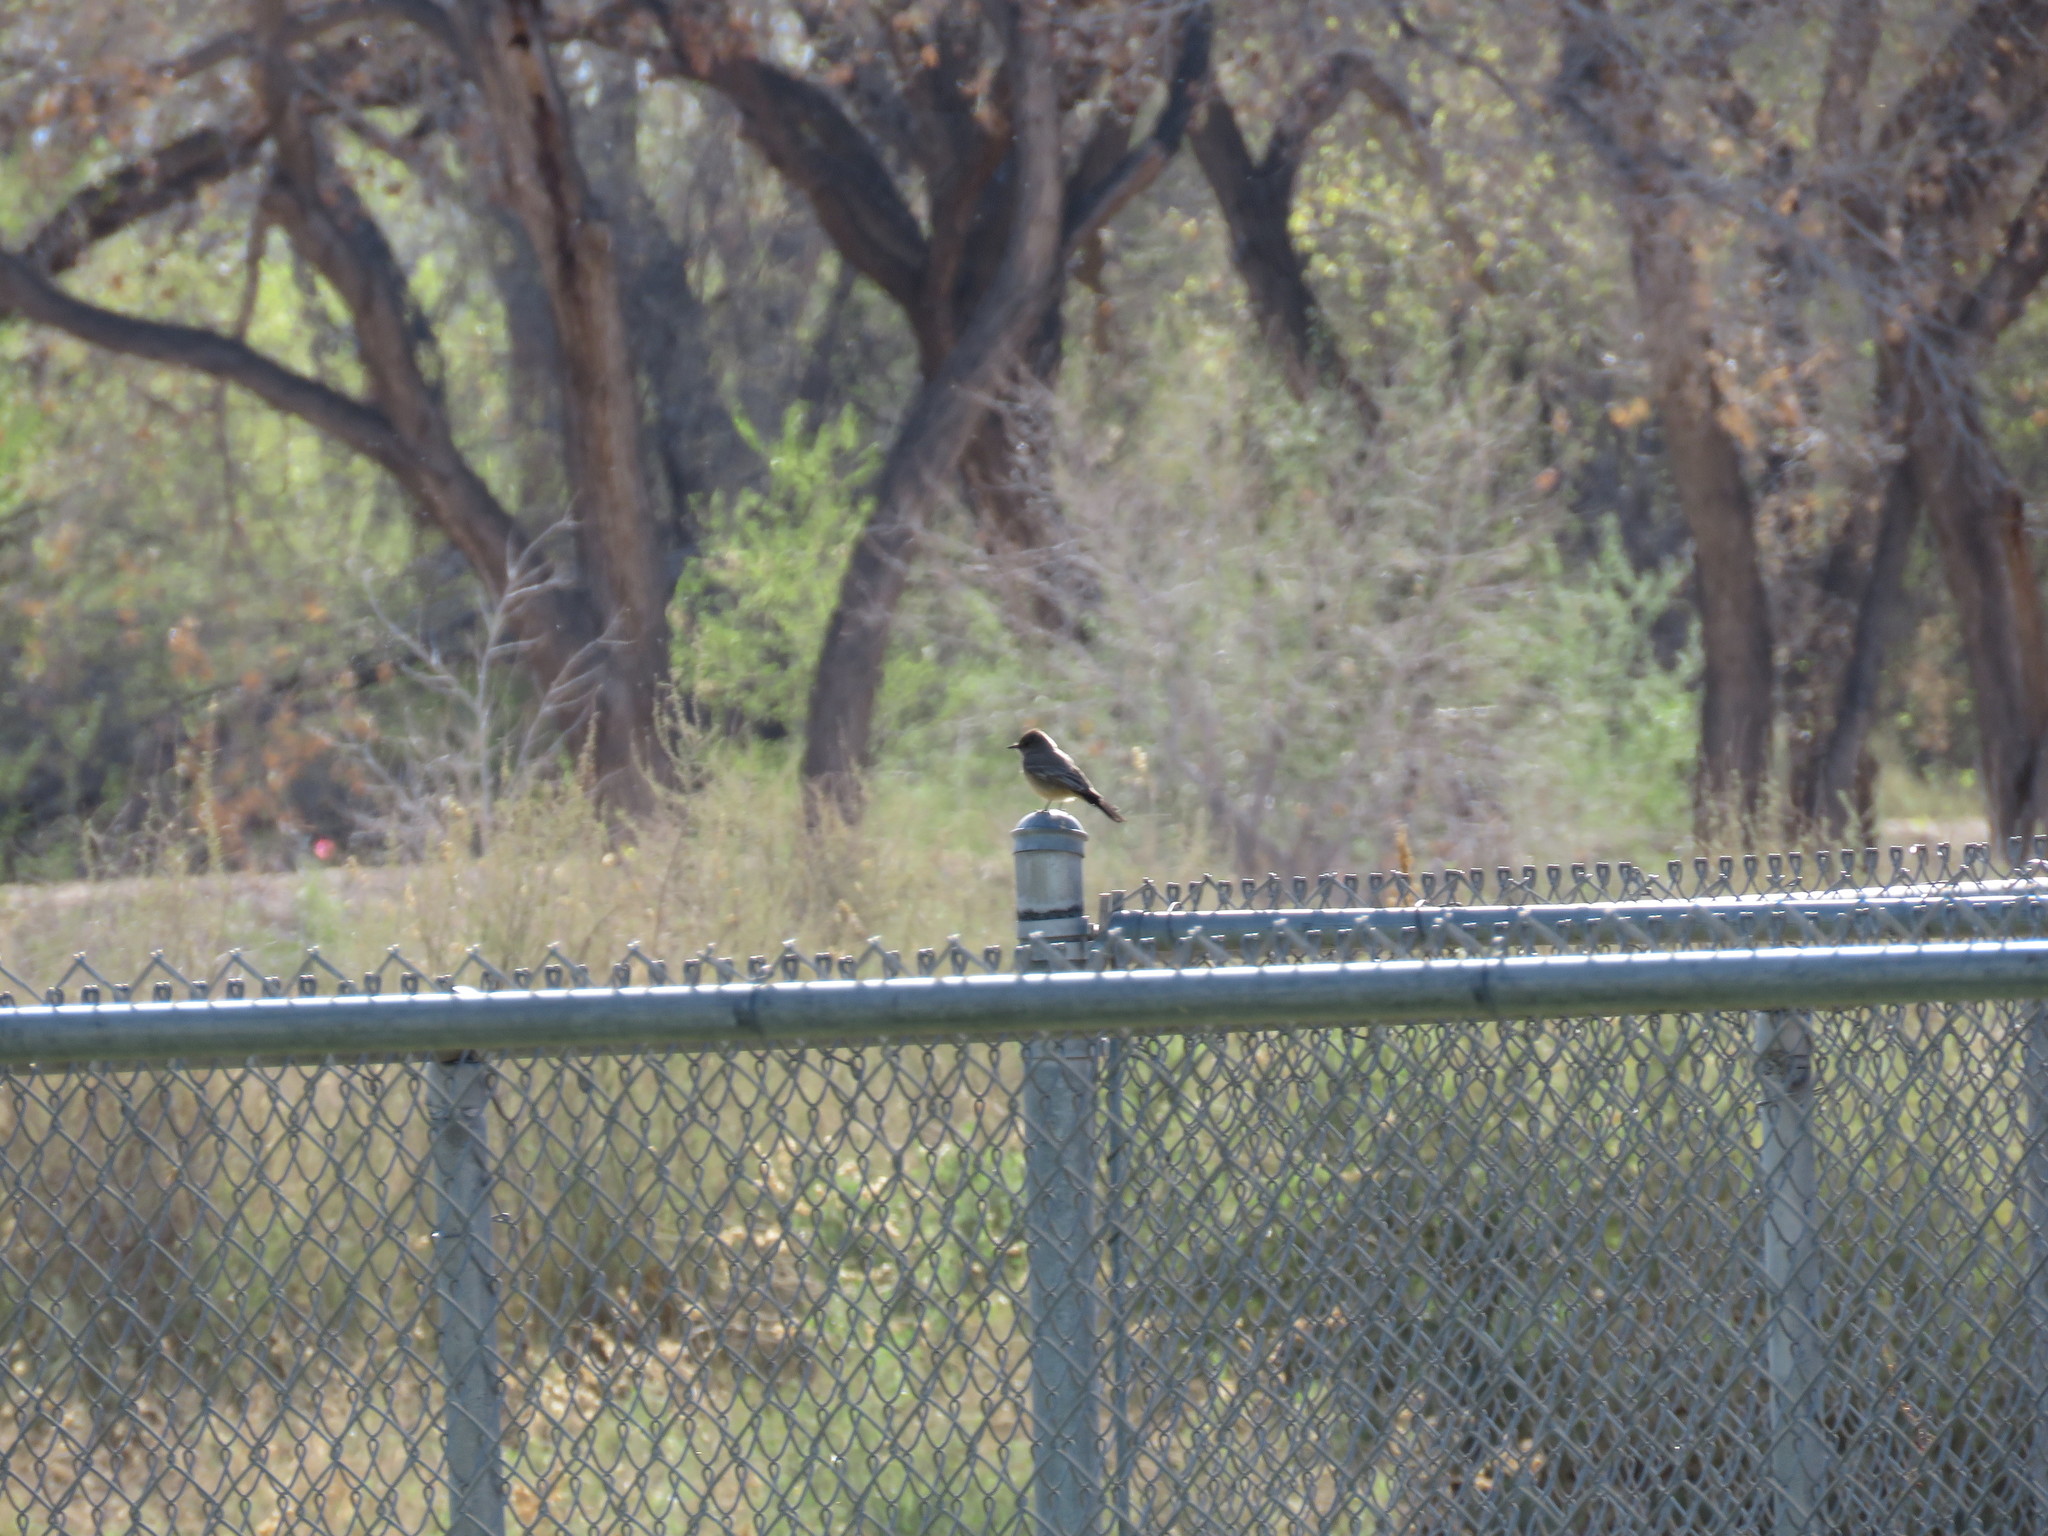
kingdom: Animalia
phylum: Chordata
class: Aves
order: Passeriformes
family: Tyrannidae
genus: Sayornis
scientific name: Sayornis saya
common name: Say's phoebe
